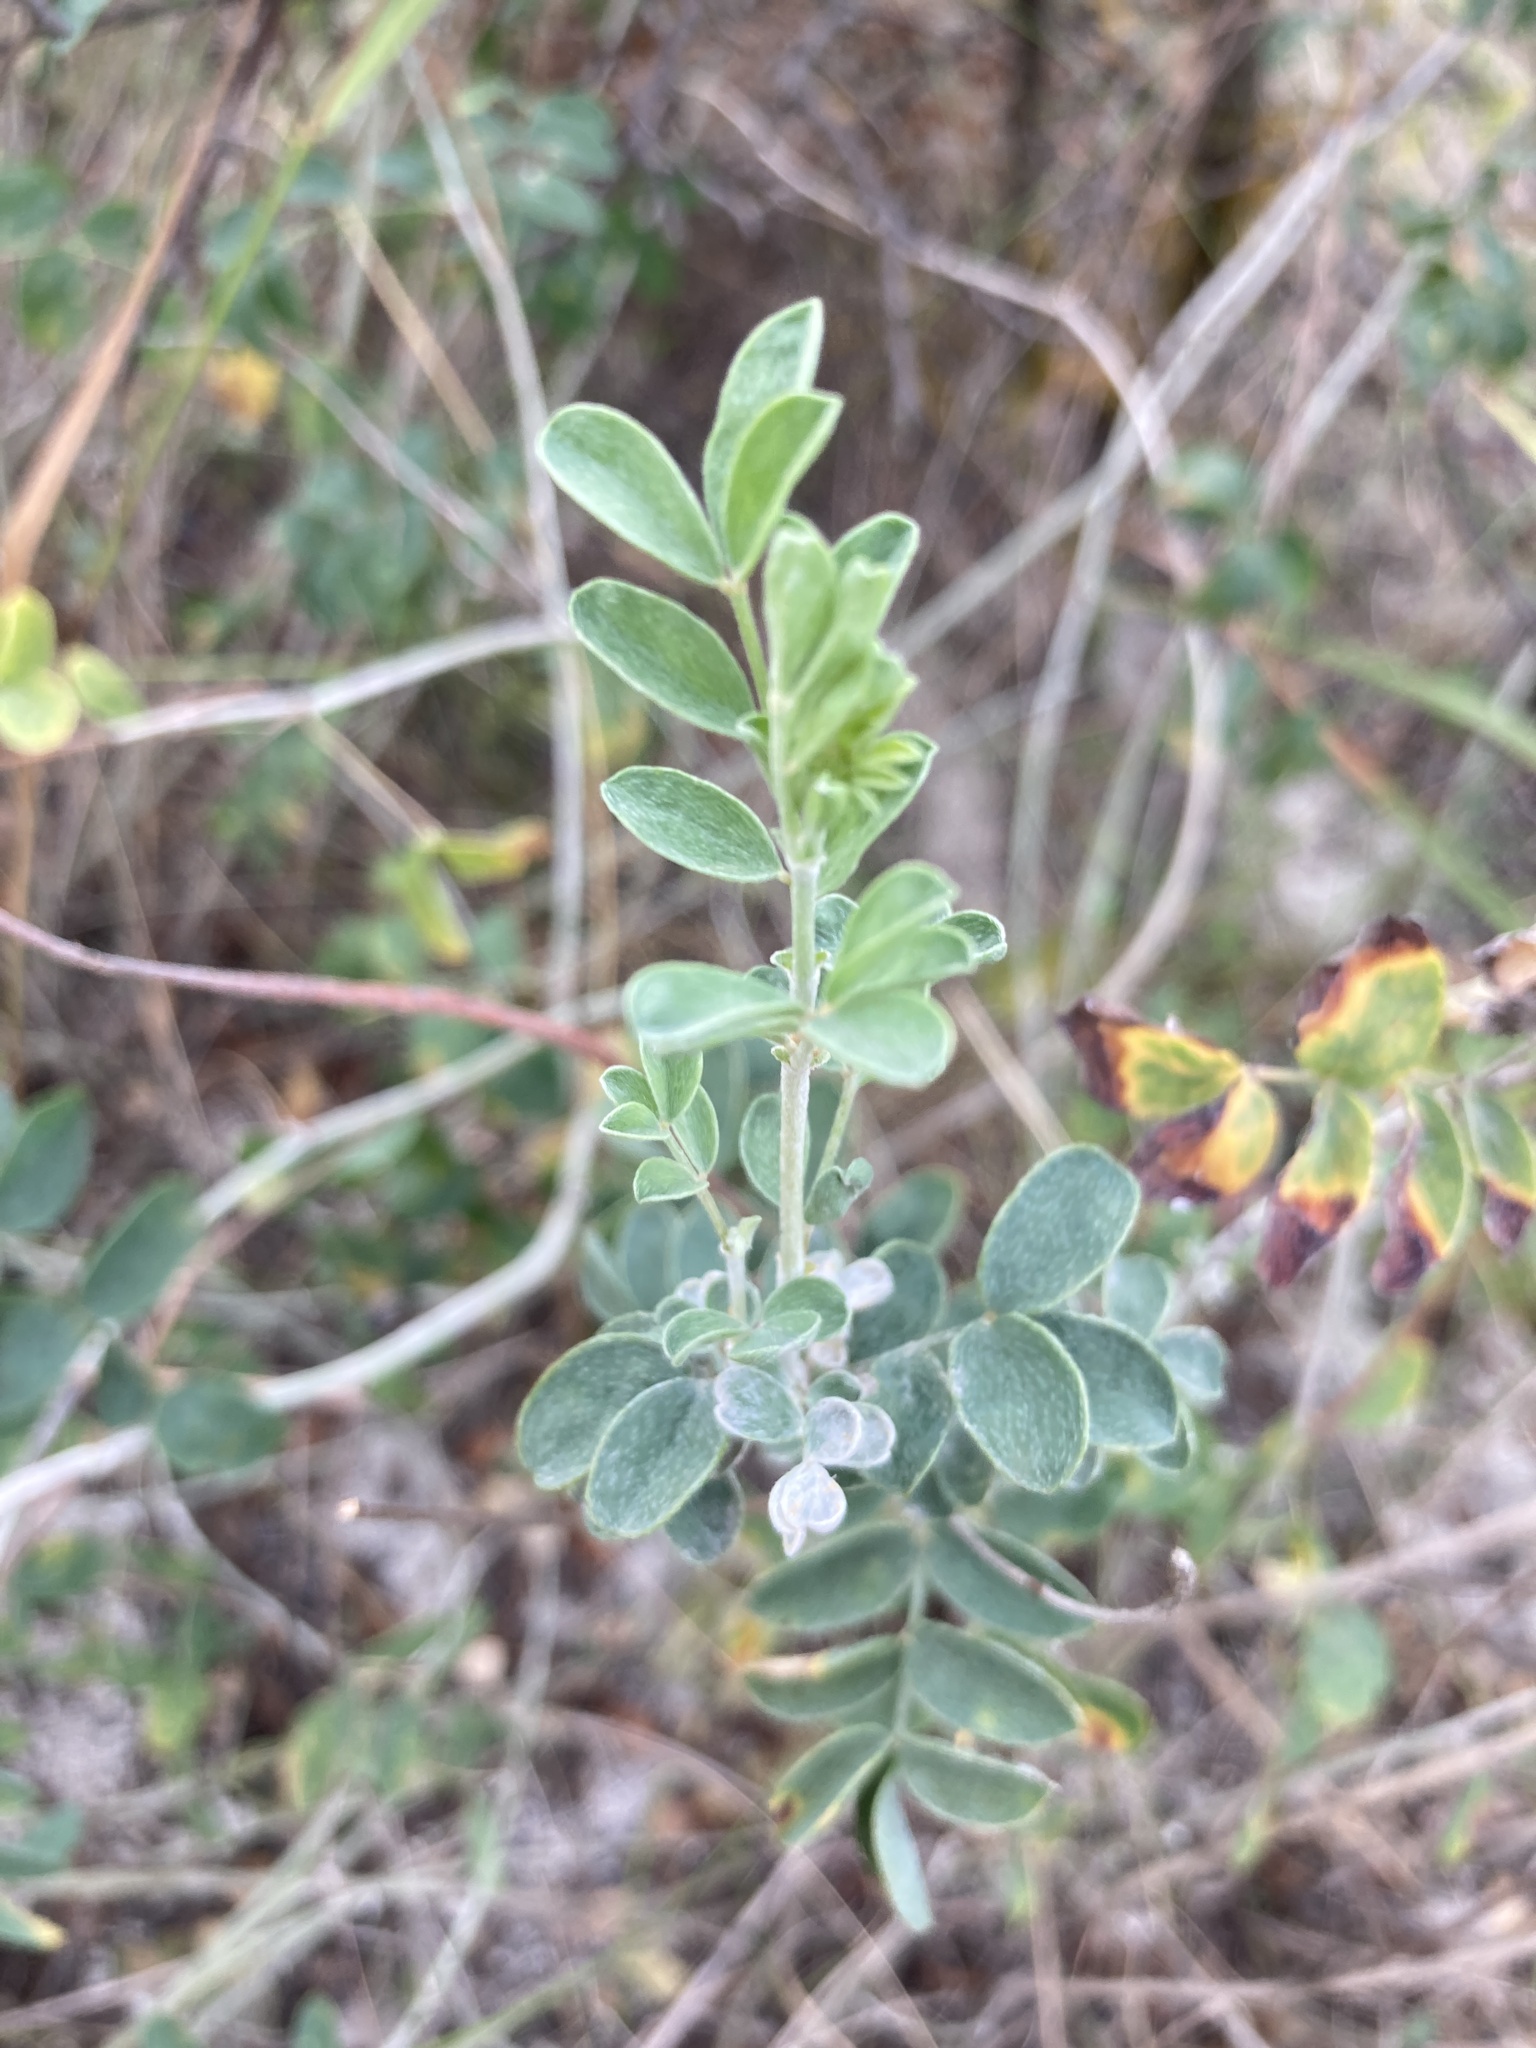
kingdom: Plantae
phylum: Tracheophyta
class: Magnoliopsida
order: Fabales
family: Fabaceae
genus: Astragalus
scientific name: Astragalus albicaulis
